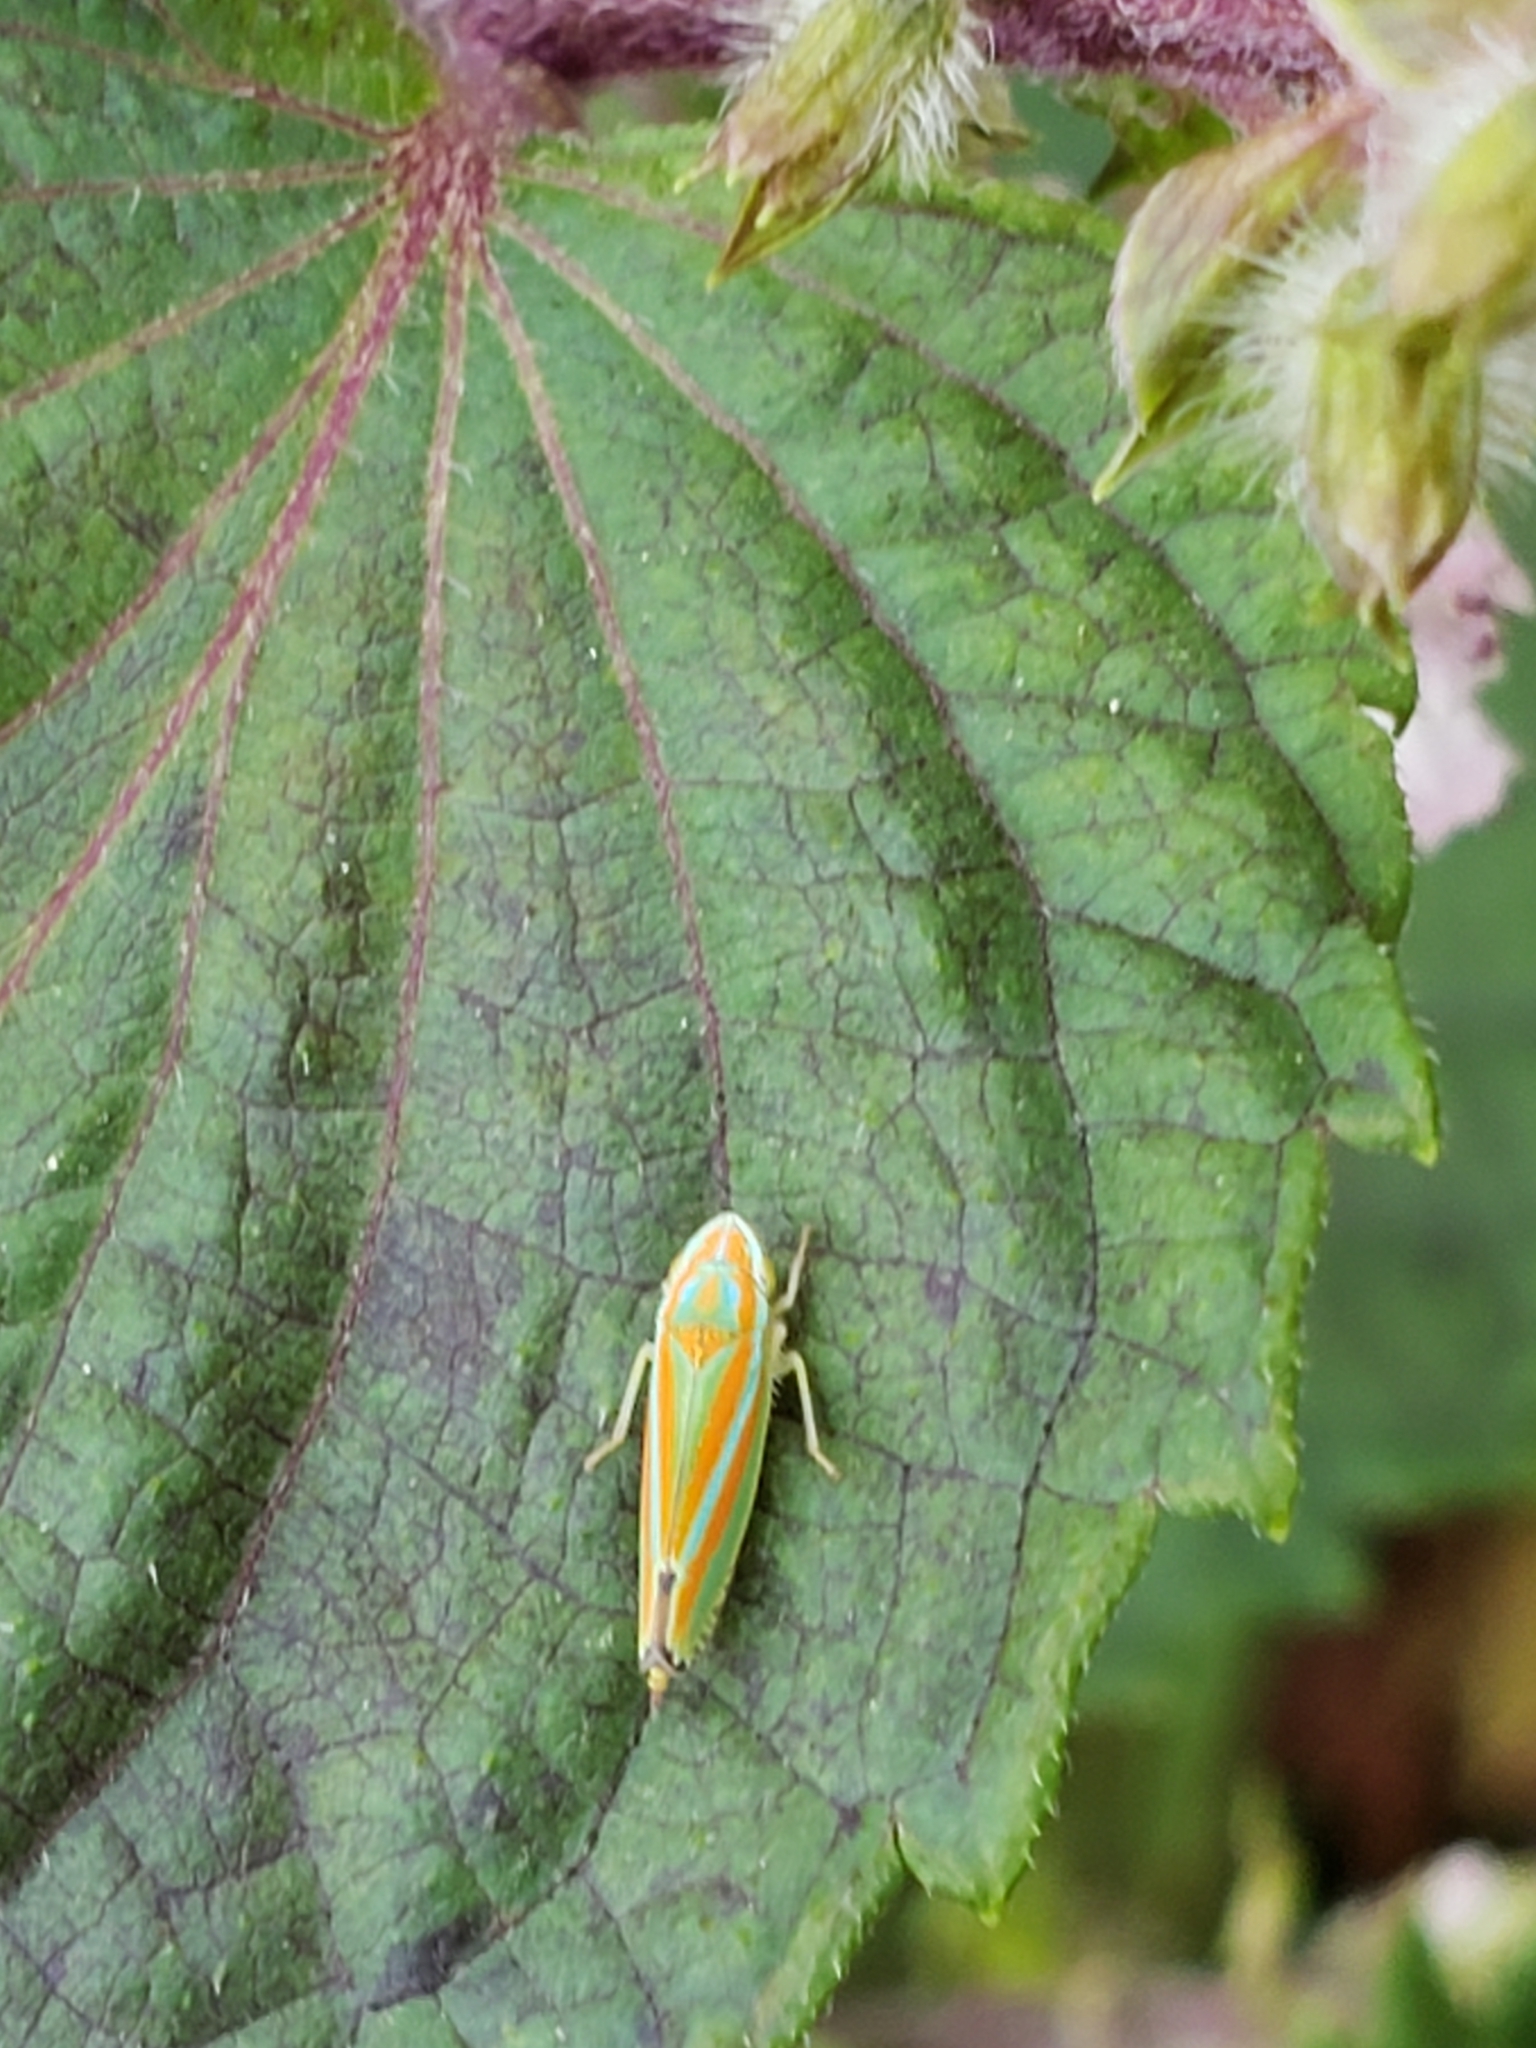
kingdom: Animalia
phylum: Arthropoda
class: Insecta
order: Hemiptera
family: Cicadellidae
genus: Graphocephala
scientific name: Graphocephala versuta
